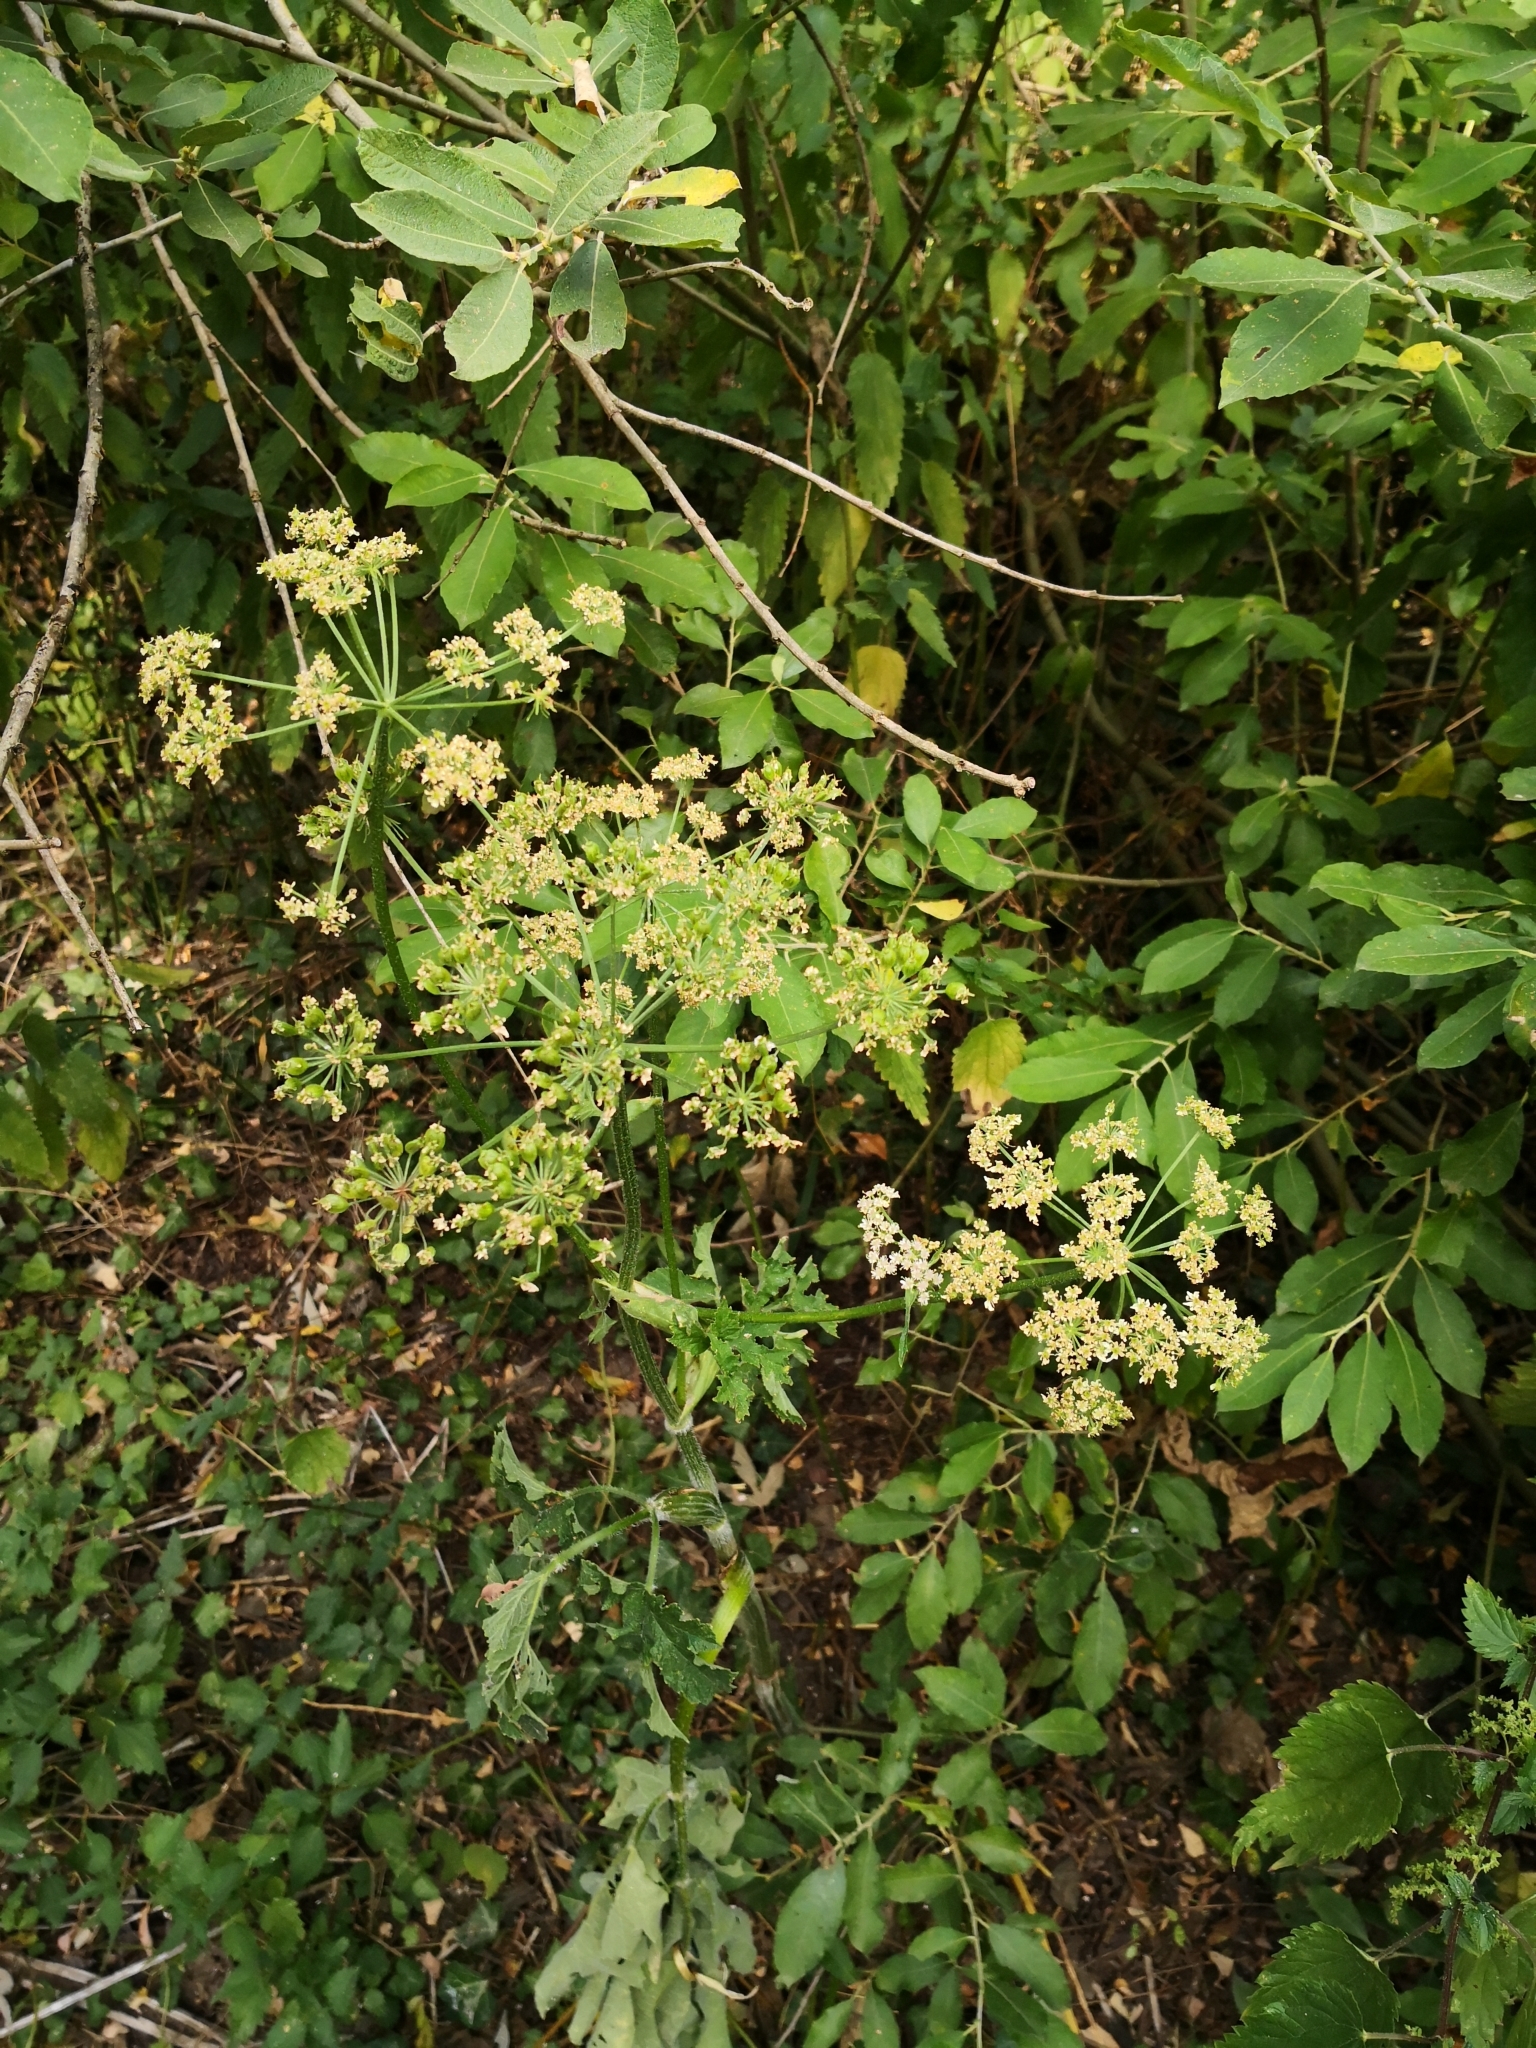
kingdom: Plantae
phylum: Tracheophyta
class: Magnoliopsida
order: Apiales
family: Apiaceae
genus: Heracleum
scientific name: Heracleum sphondylium
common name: Hogweed
